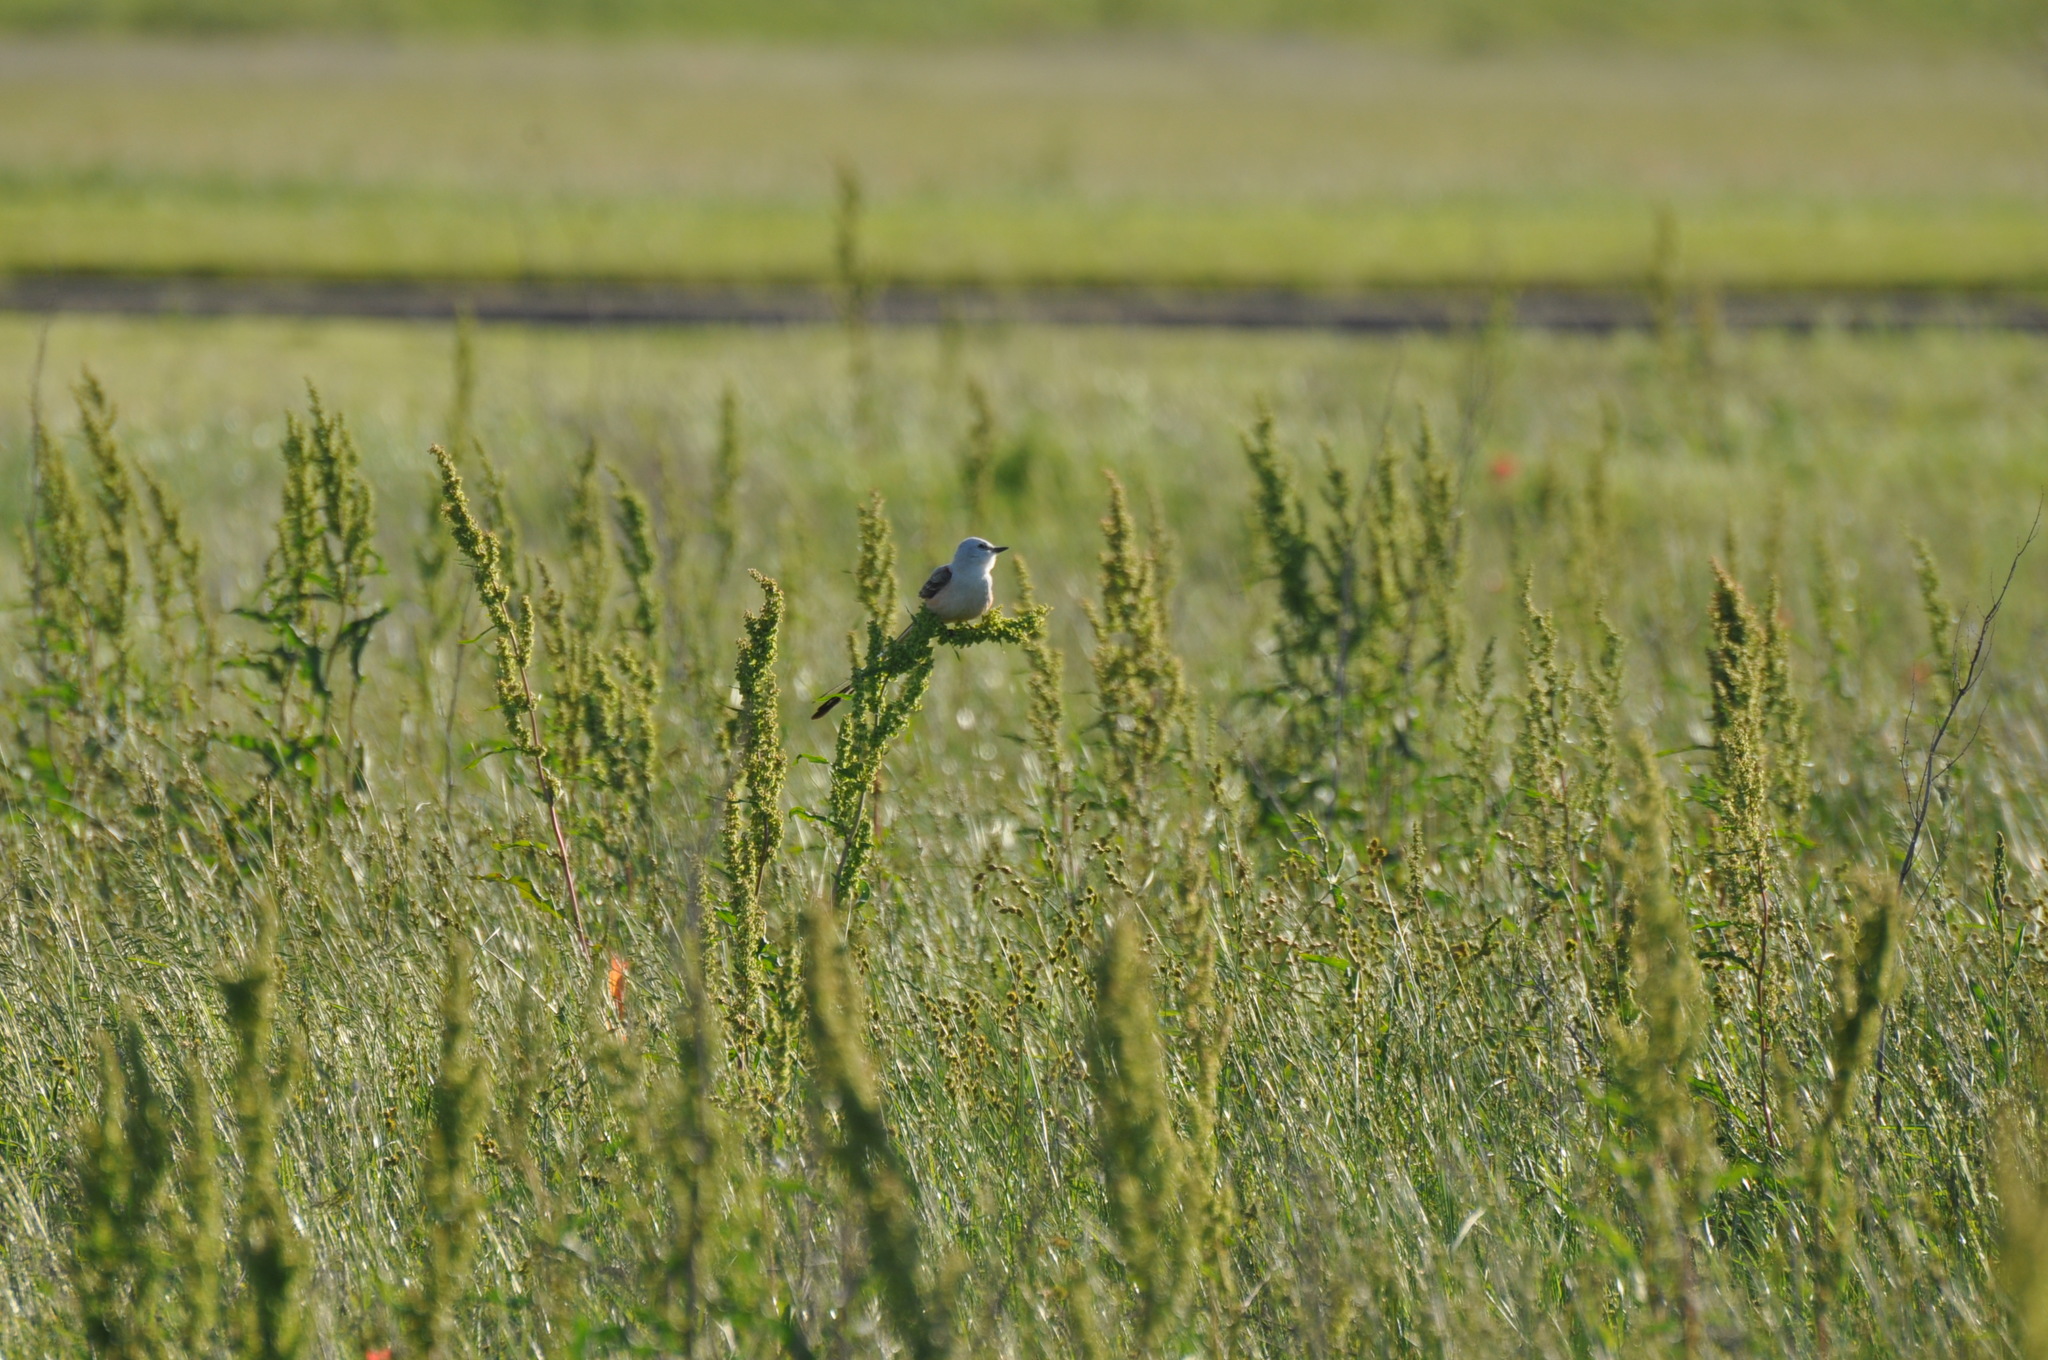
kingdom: Animalia
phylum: Chordata
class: Aves
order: Passeriformes
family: Tyrannidae
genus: Tyrannus
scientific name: Tyrannus forficatus
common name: Scissor-tailed flycatcher
